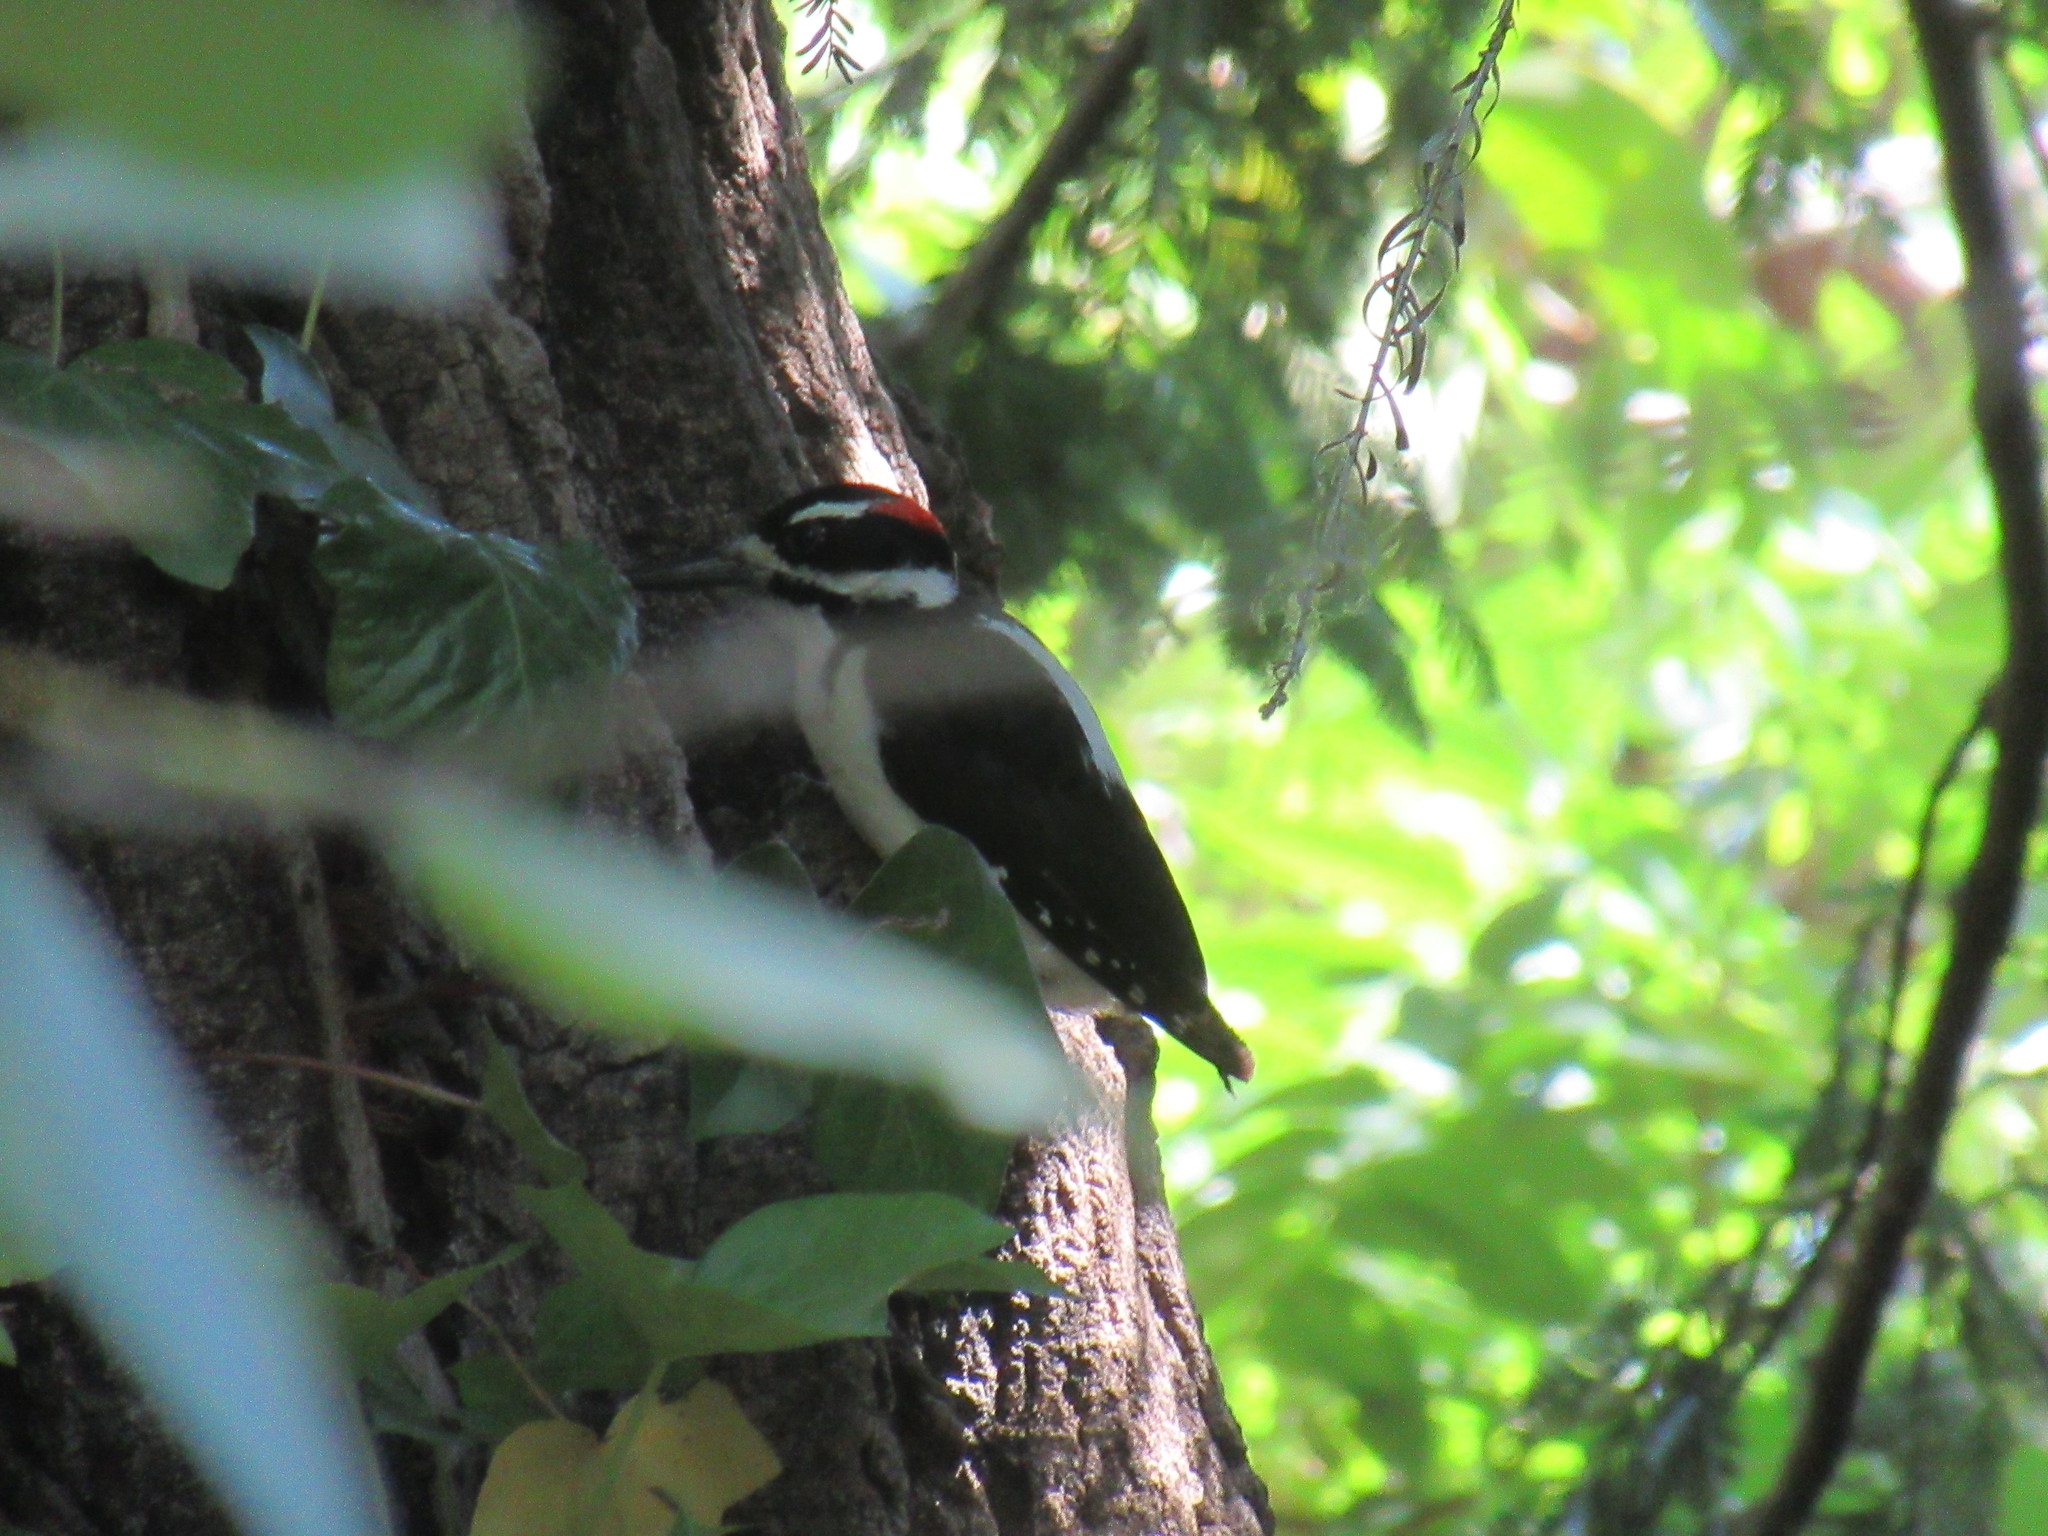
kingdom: Animalia
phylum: Chordata
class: Aves
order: Piciformes
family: Picidae
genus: Leuconotopicus
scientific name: Leuconotopicus villosus
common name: Hairy woodpecker
